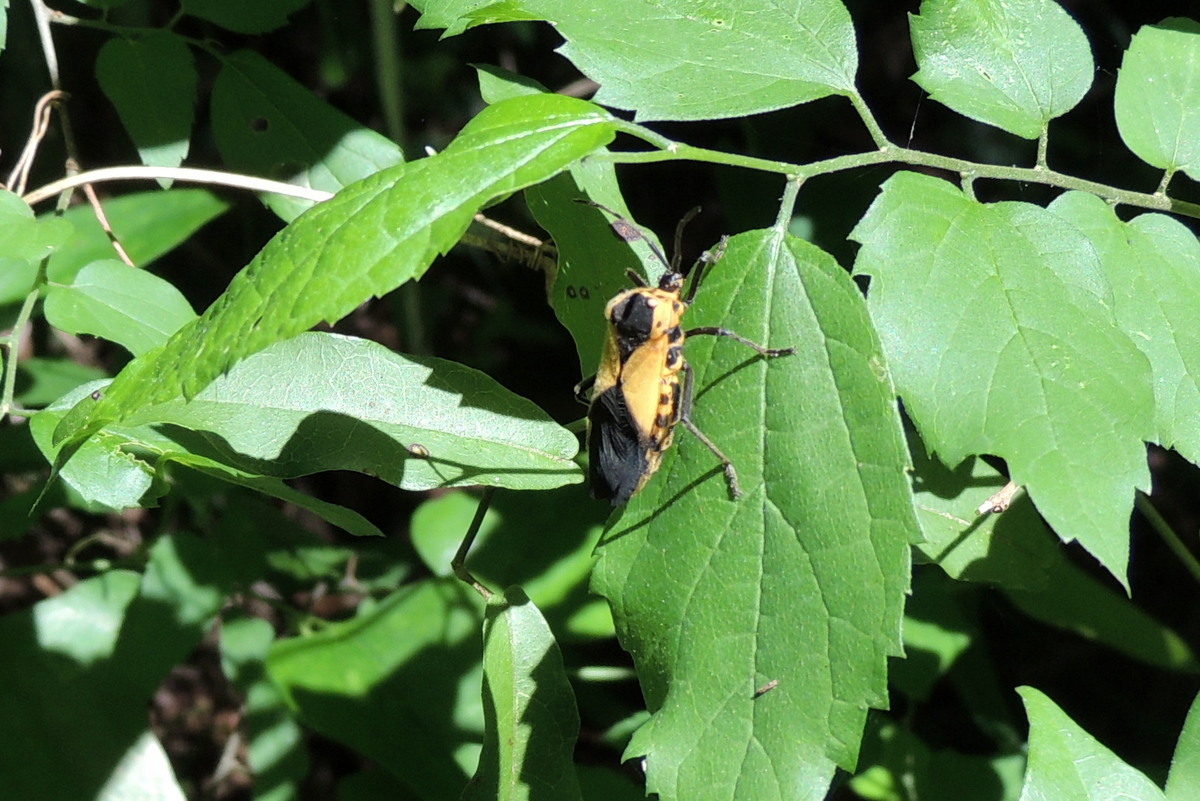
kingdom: Animalia
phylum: Arthropoda
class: Insecta
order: Hemiptera
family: Coreidae
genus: Sephina
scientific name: Sephina gundlachii
